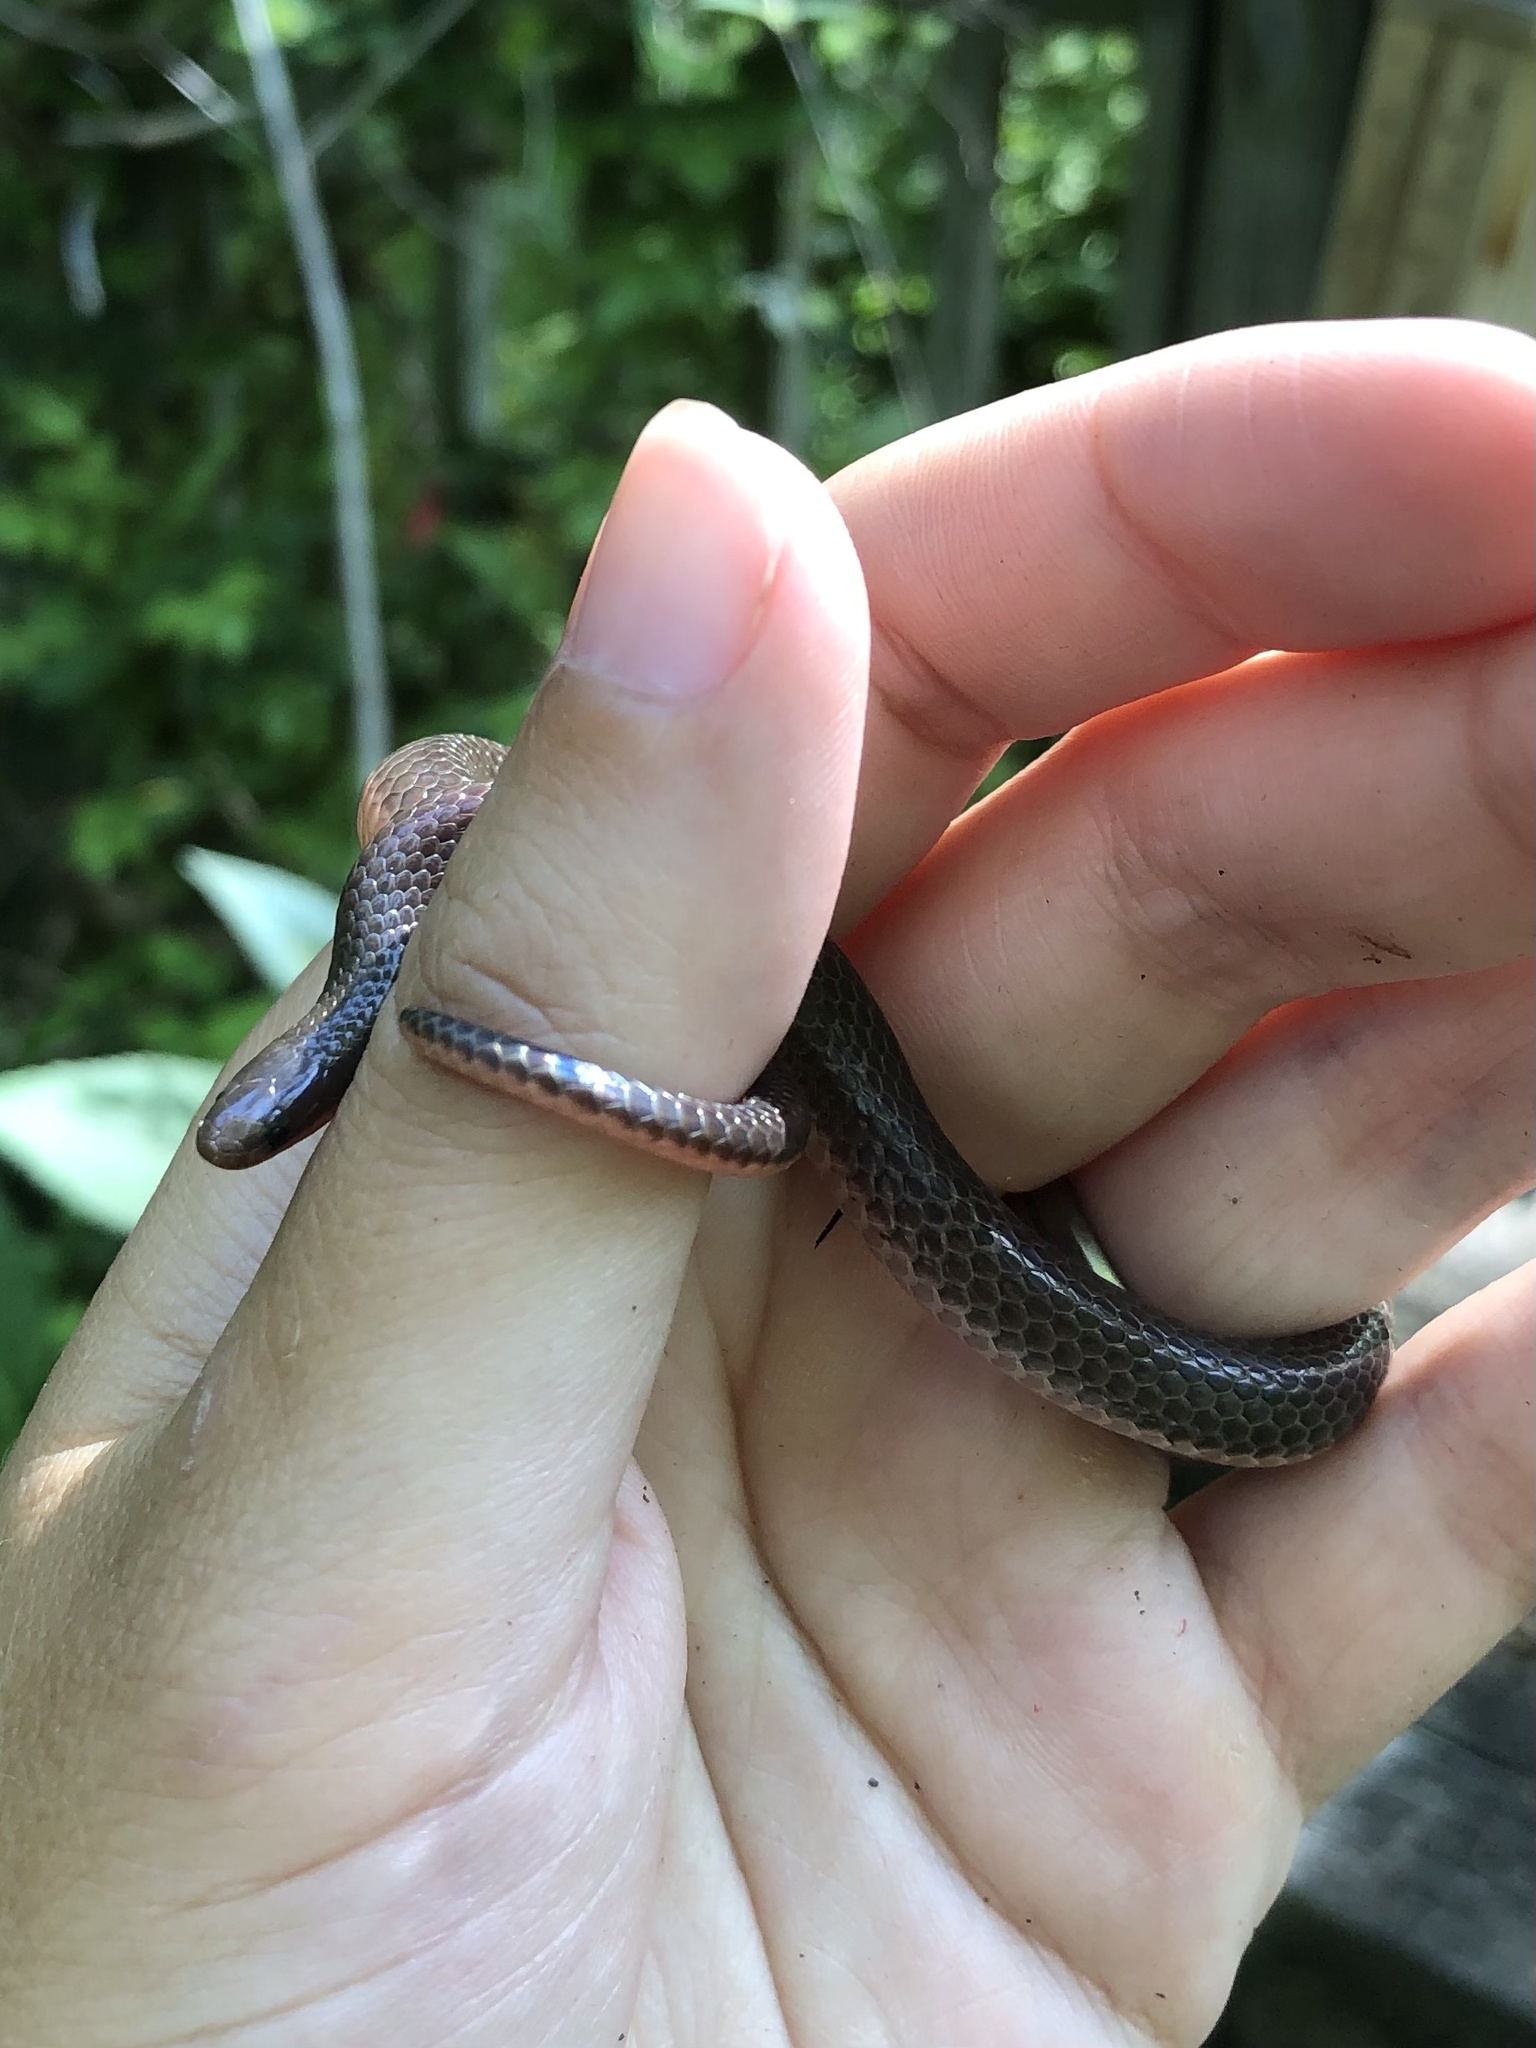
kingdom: Animalia
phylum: Chordata
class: Squamata
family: Colubridae
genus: Carphophis
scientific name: Carphophis amoenus
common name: Eastern worm snake
